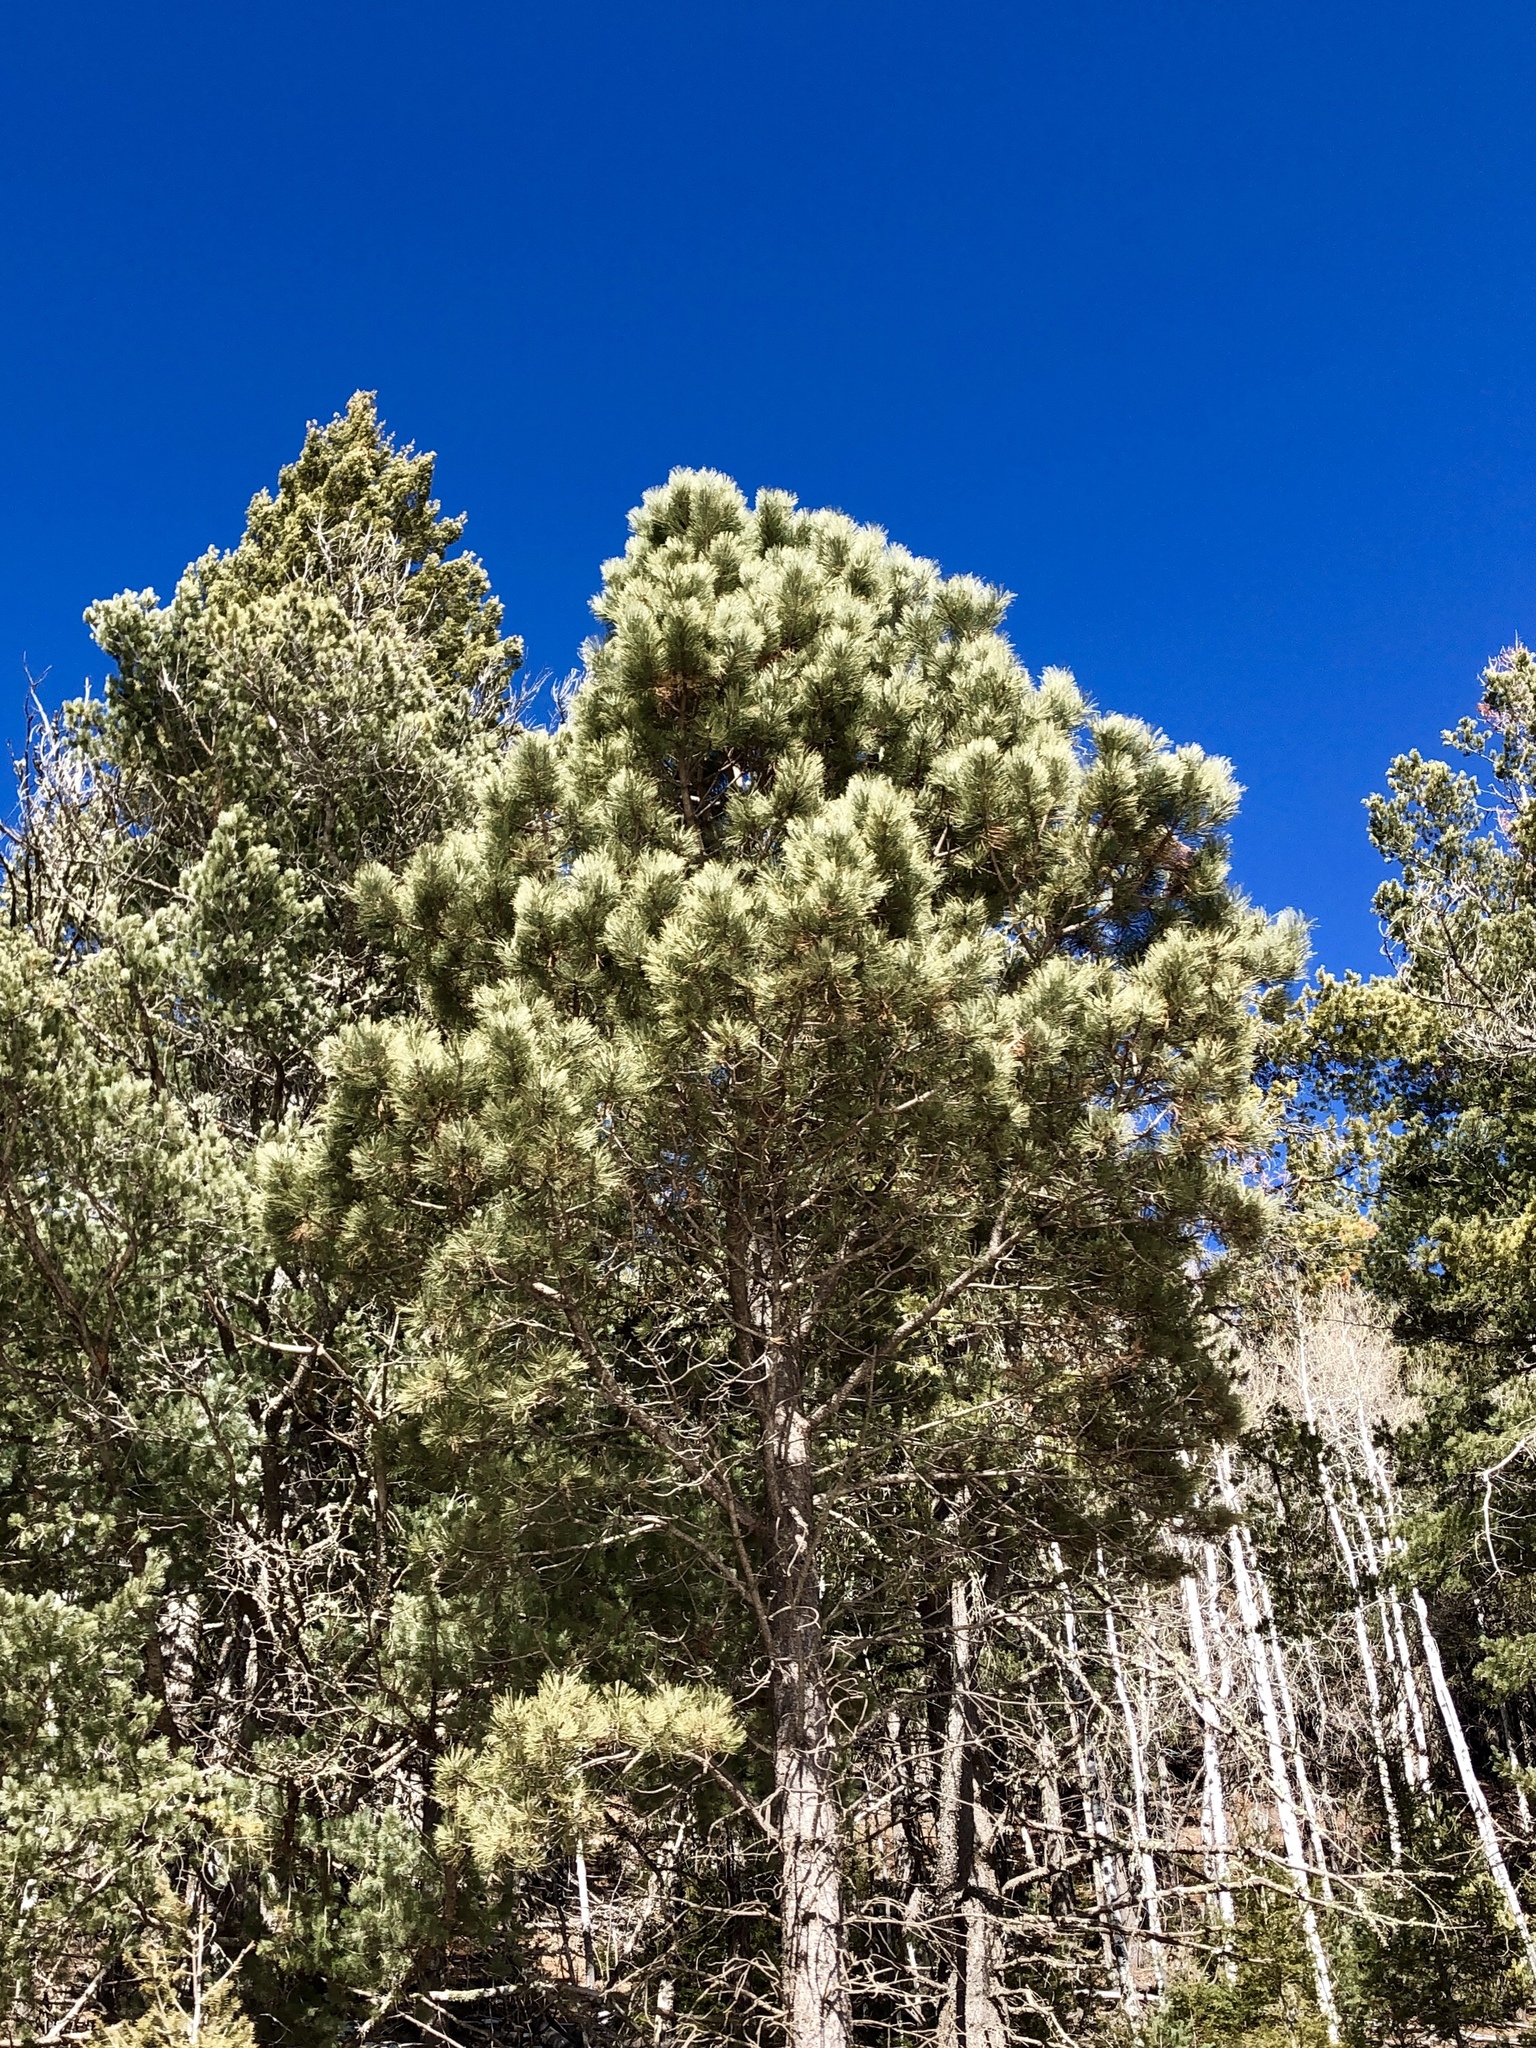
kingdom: Plantae
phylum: Tracheophyta
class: Pinopsida
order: Pinales
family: Pinaceae
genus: Pinus
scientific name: Pinus ponderosa
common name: Western yellow-pine
